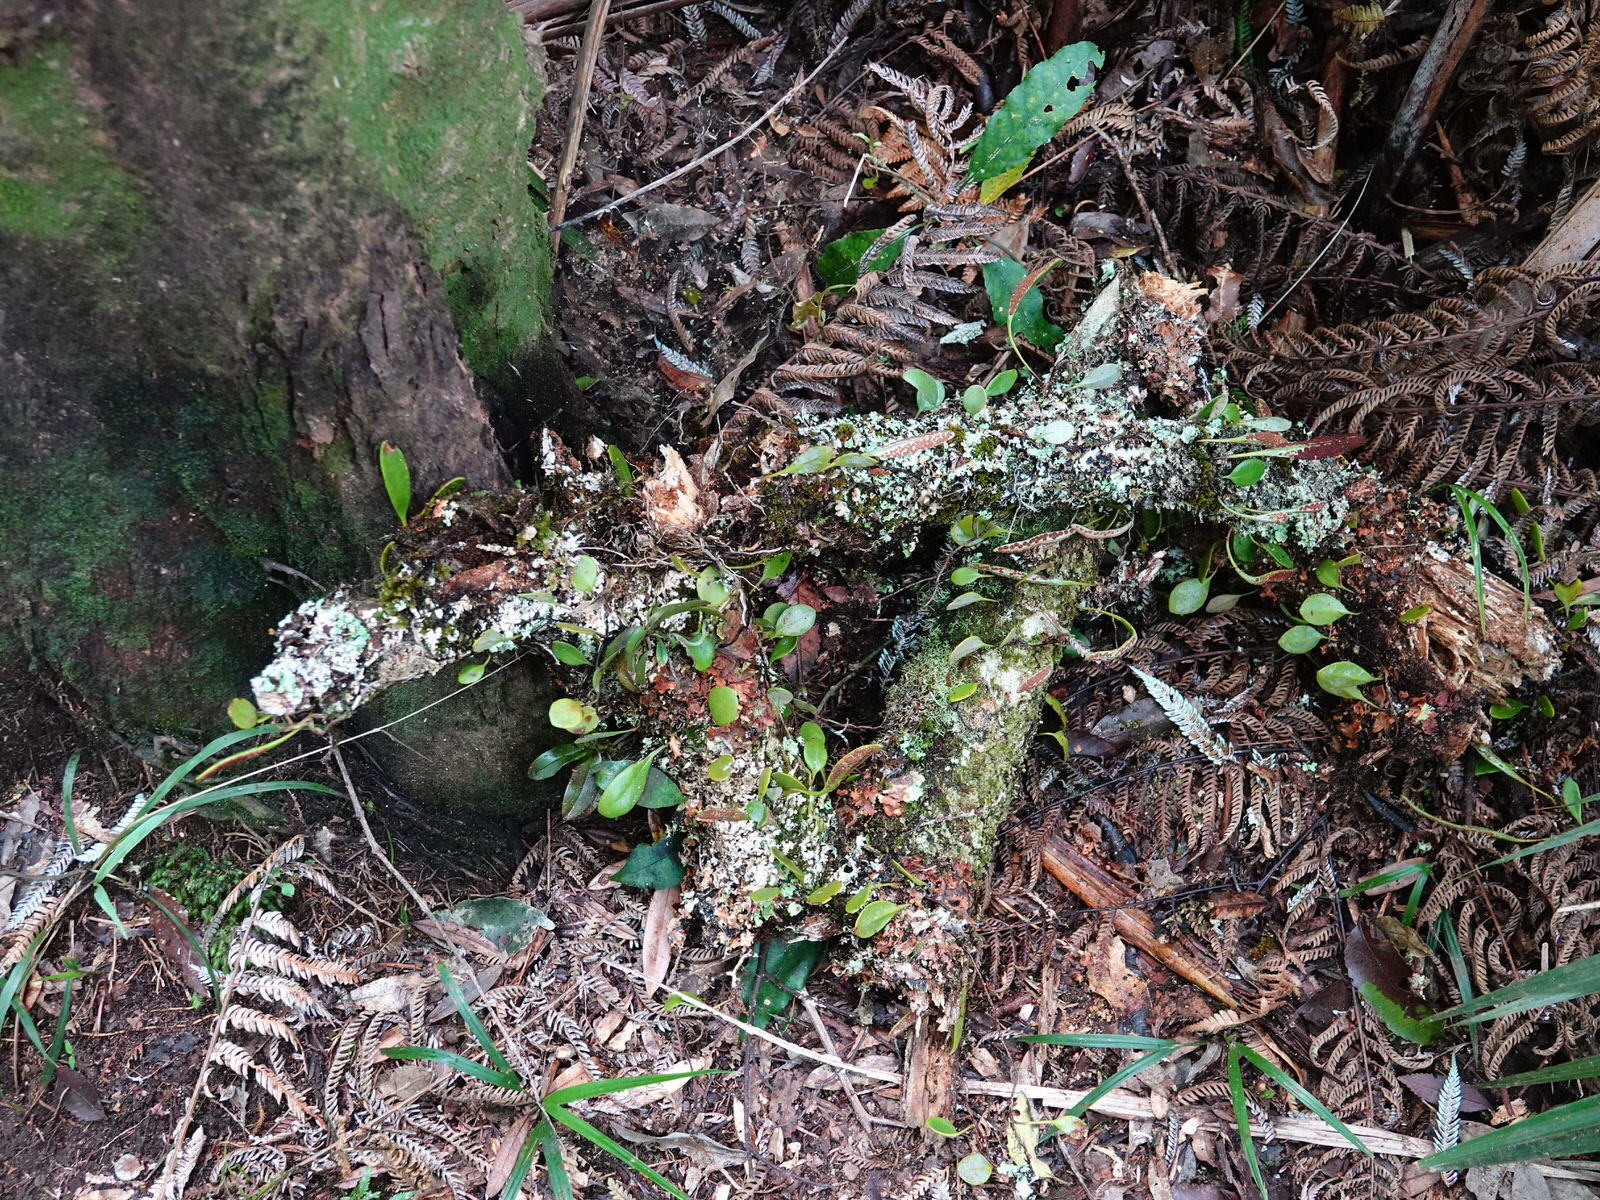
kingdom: Plantae
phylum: Tracheophyta
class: Liliopsida
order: Asparagales
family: Orchidaceae
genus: Drymoanthus
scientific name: Drymoanthus adversus
